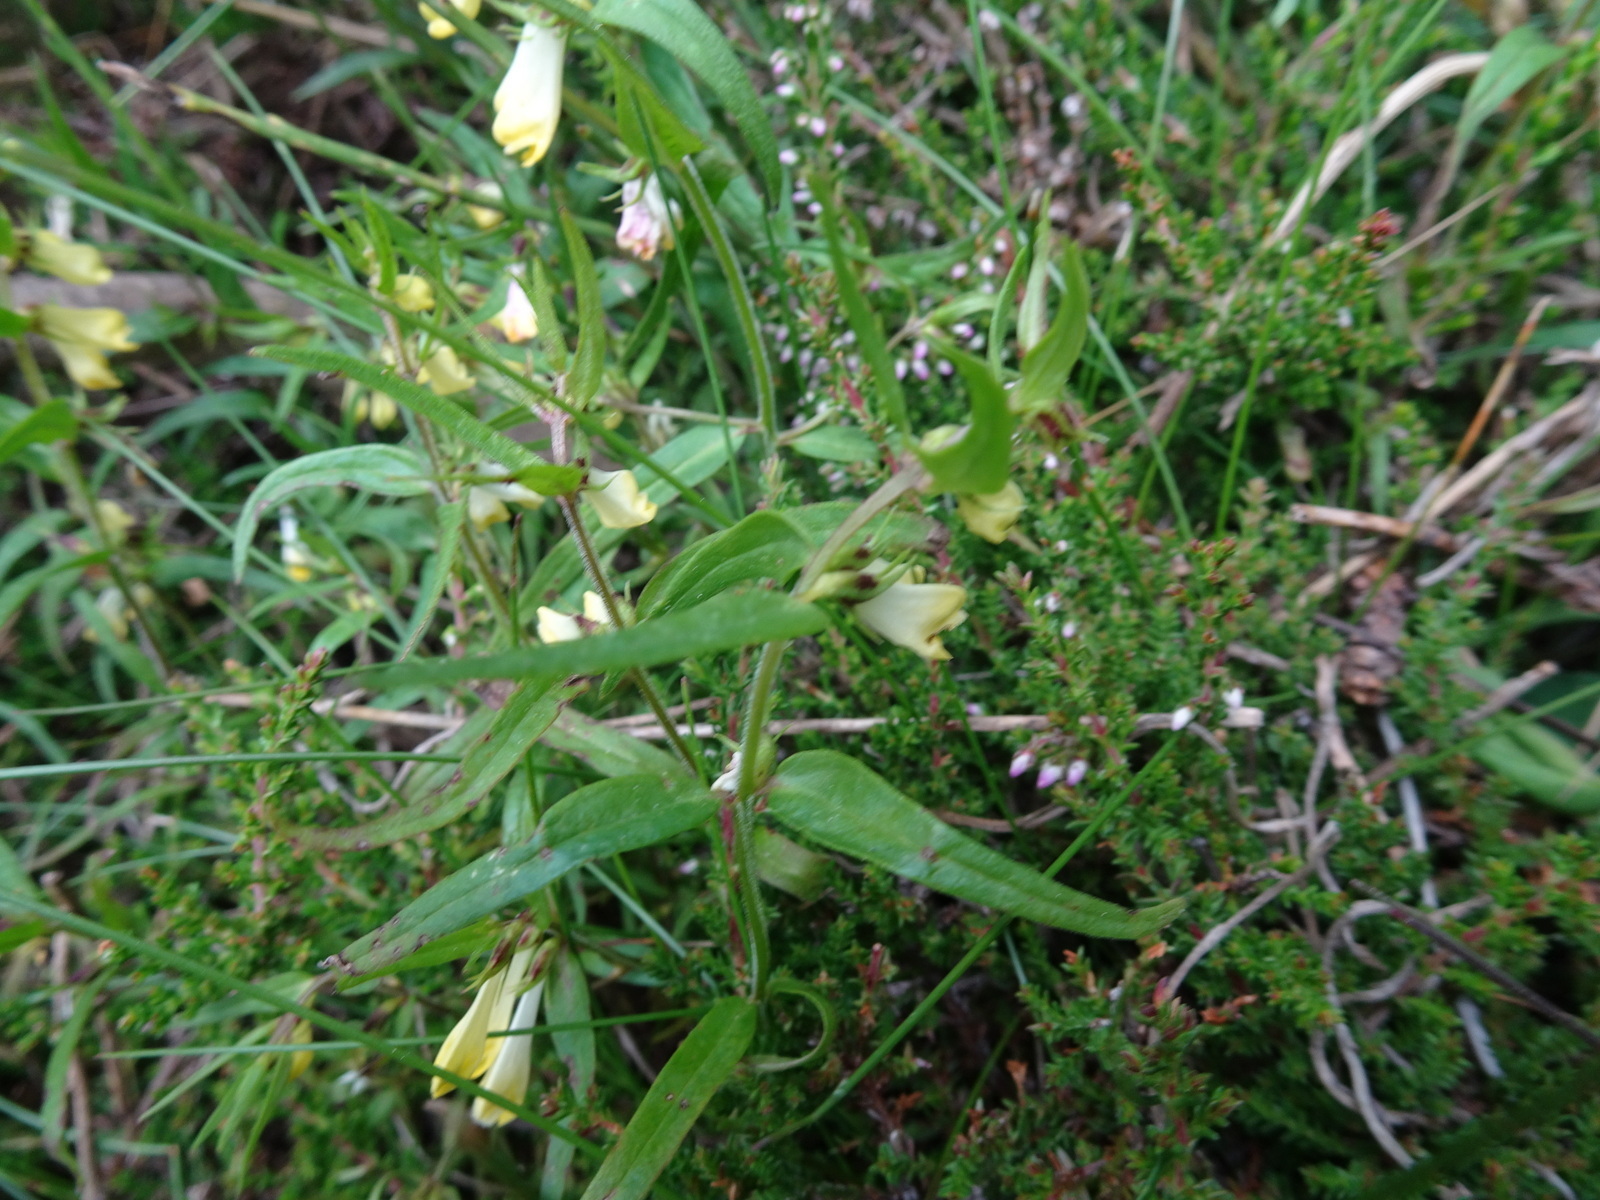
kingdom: Plantae
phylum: Tracheophyta
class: Magnoliopsida
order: Lamiales
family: Orobanchaceae
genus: Melampyrum
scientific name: Melampyrum pratense
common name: Common cow-wheat
